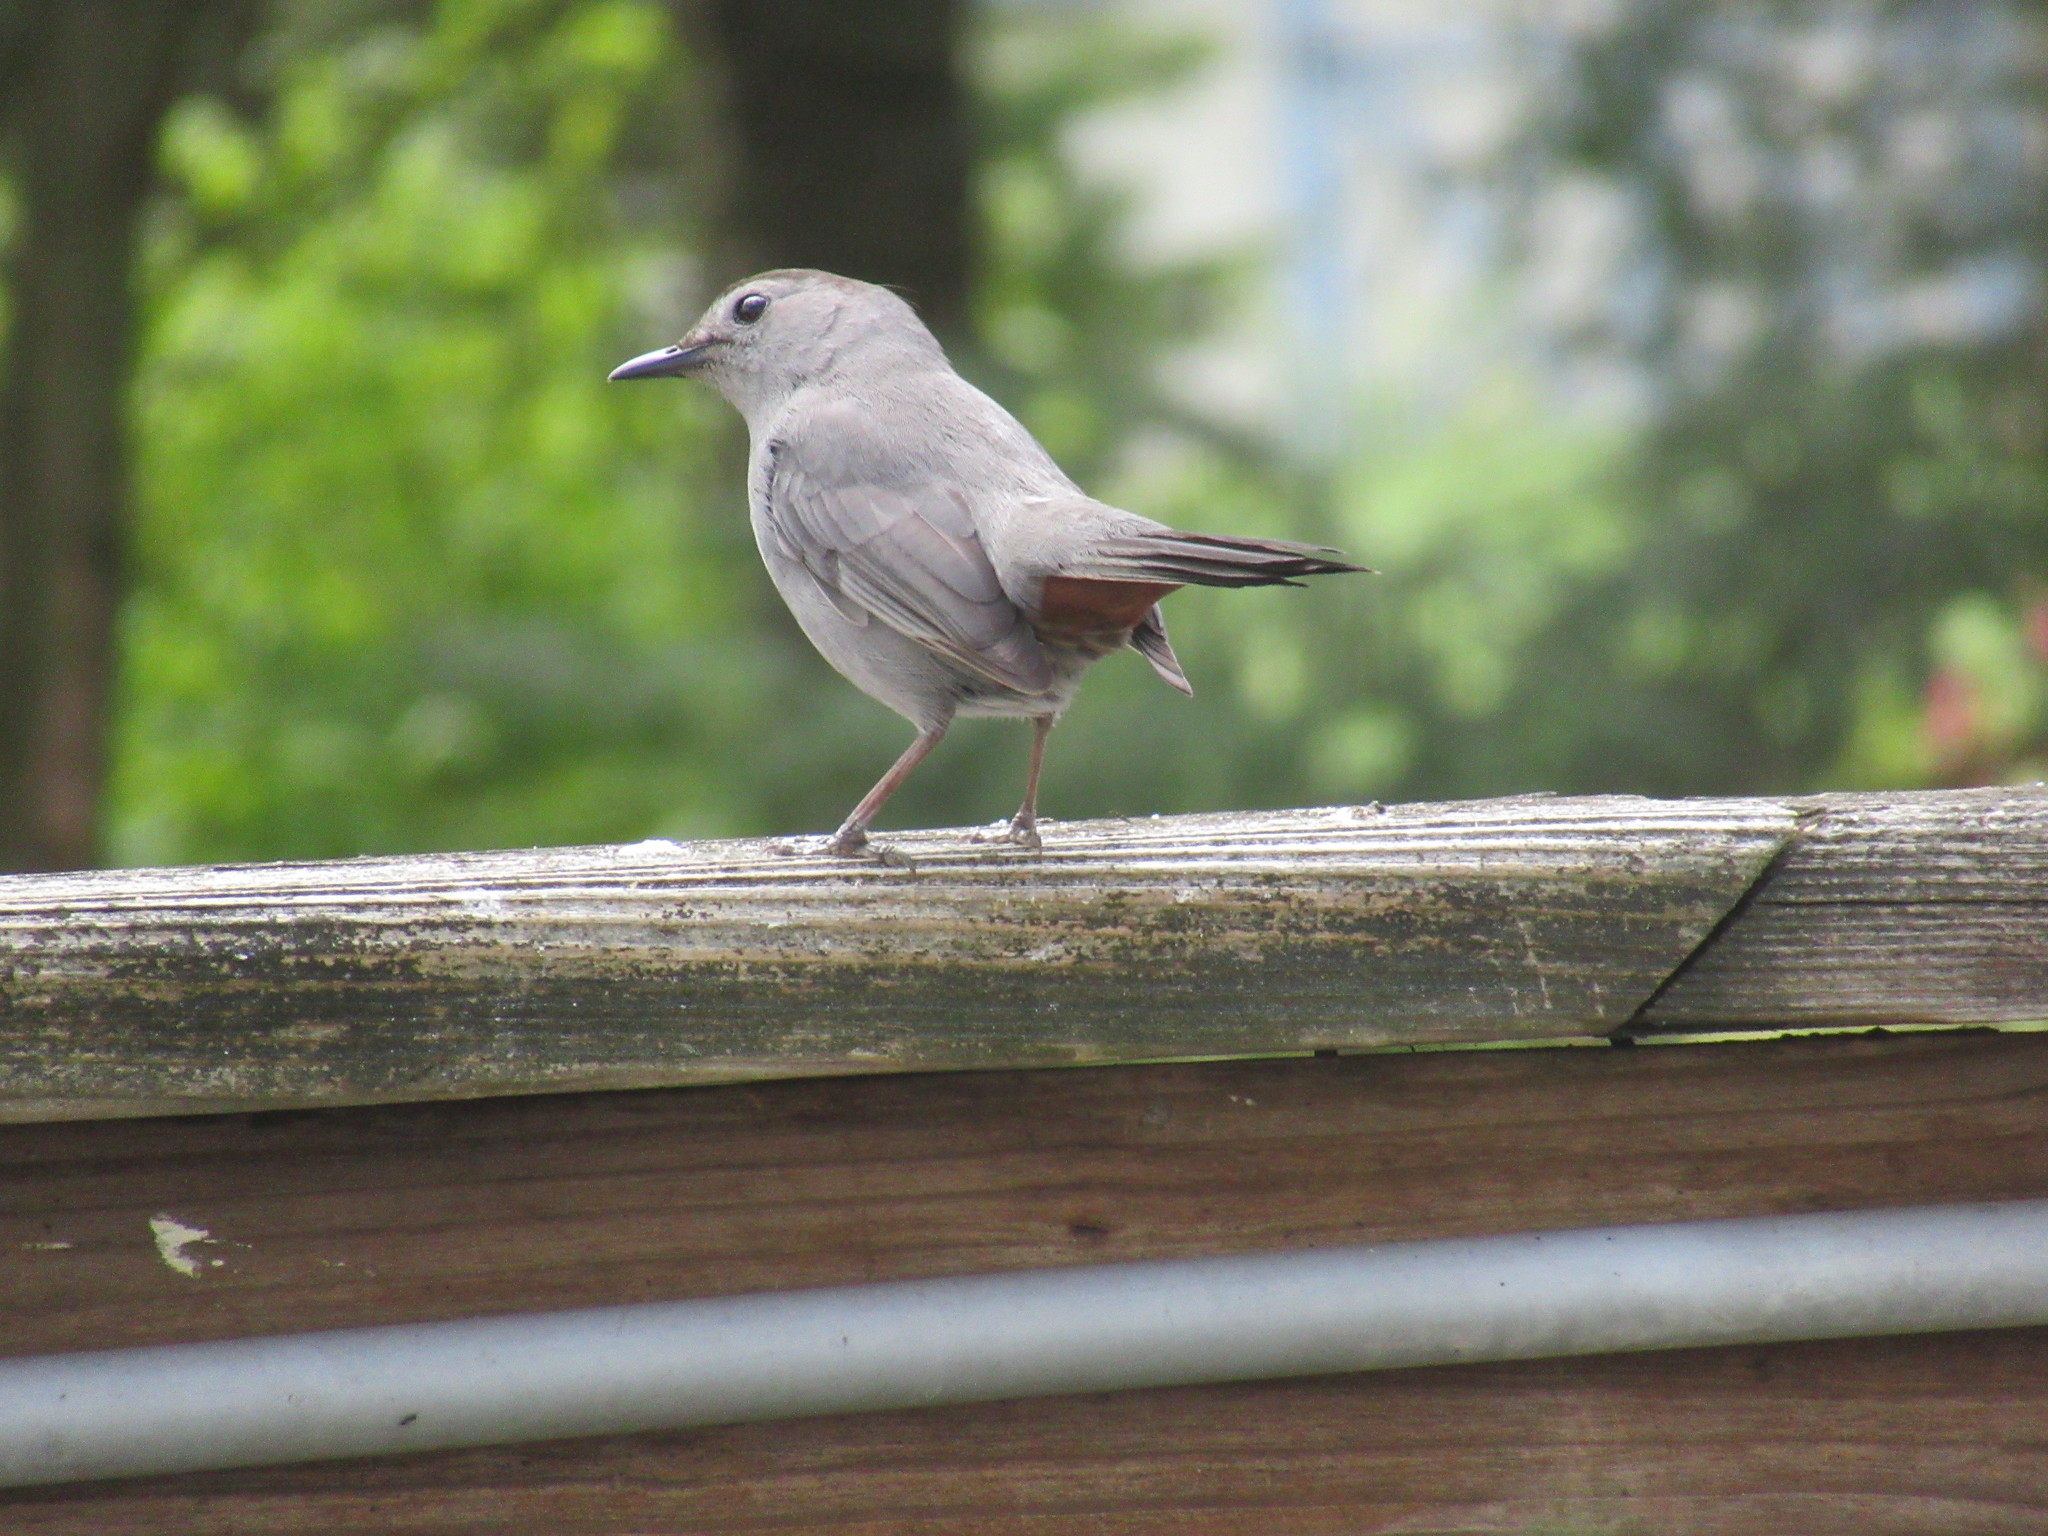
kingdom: Animalia
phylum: Chordata
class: Aves
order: Passeriformes
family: Mimidae
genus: Dumetella
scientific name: Dumetella carolinensis
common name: Gray catbird
